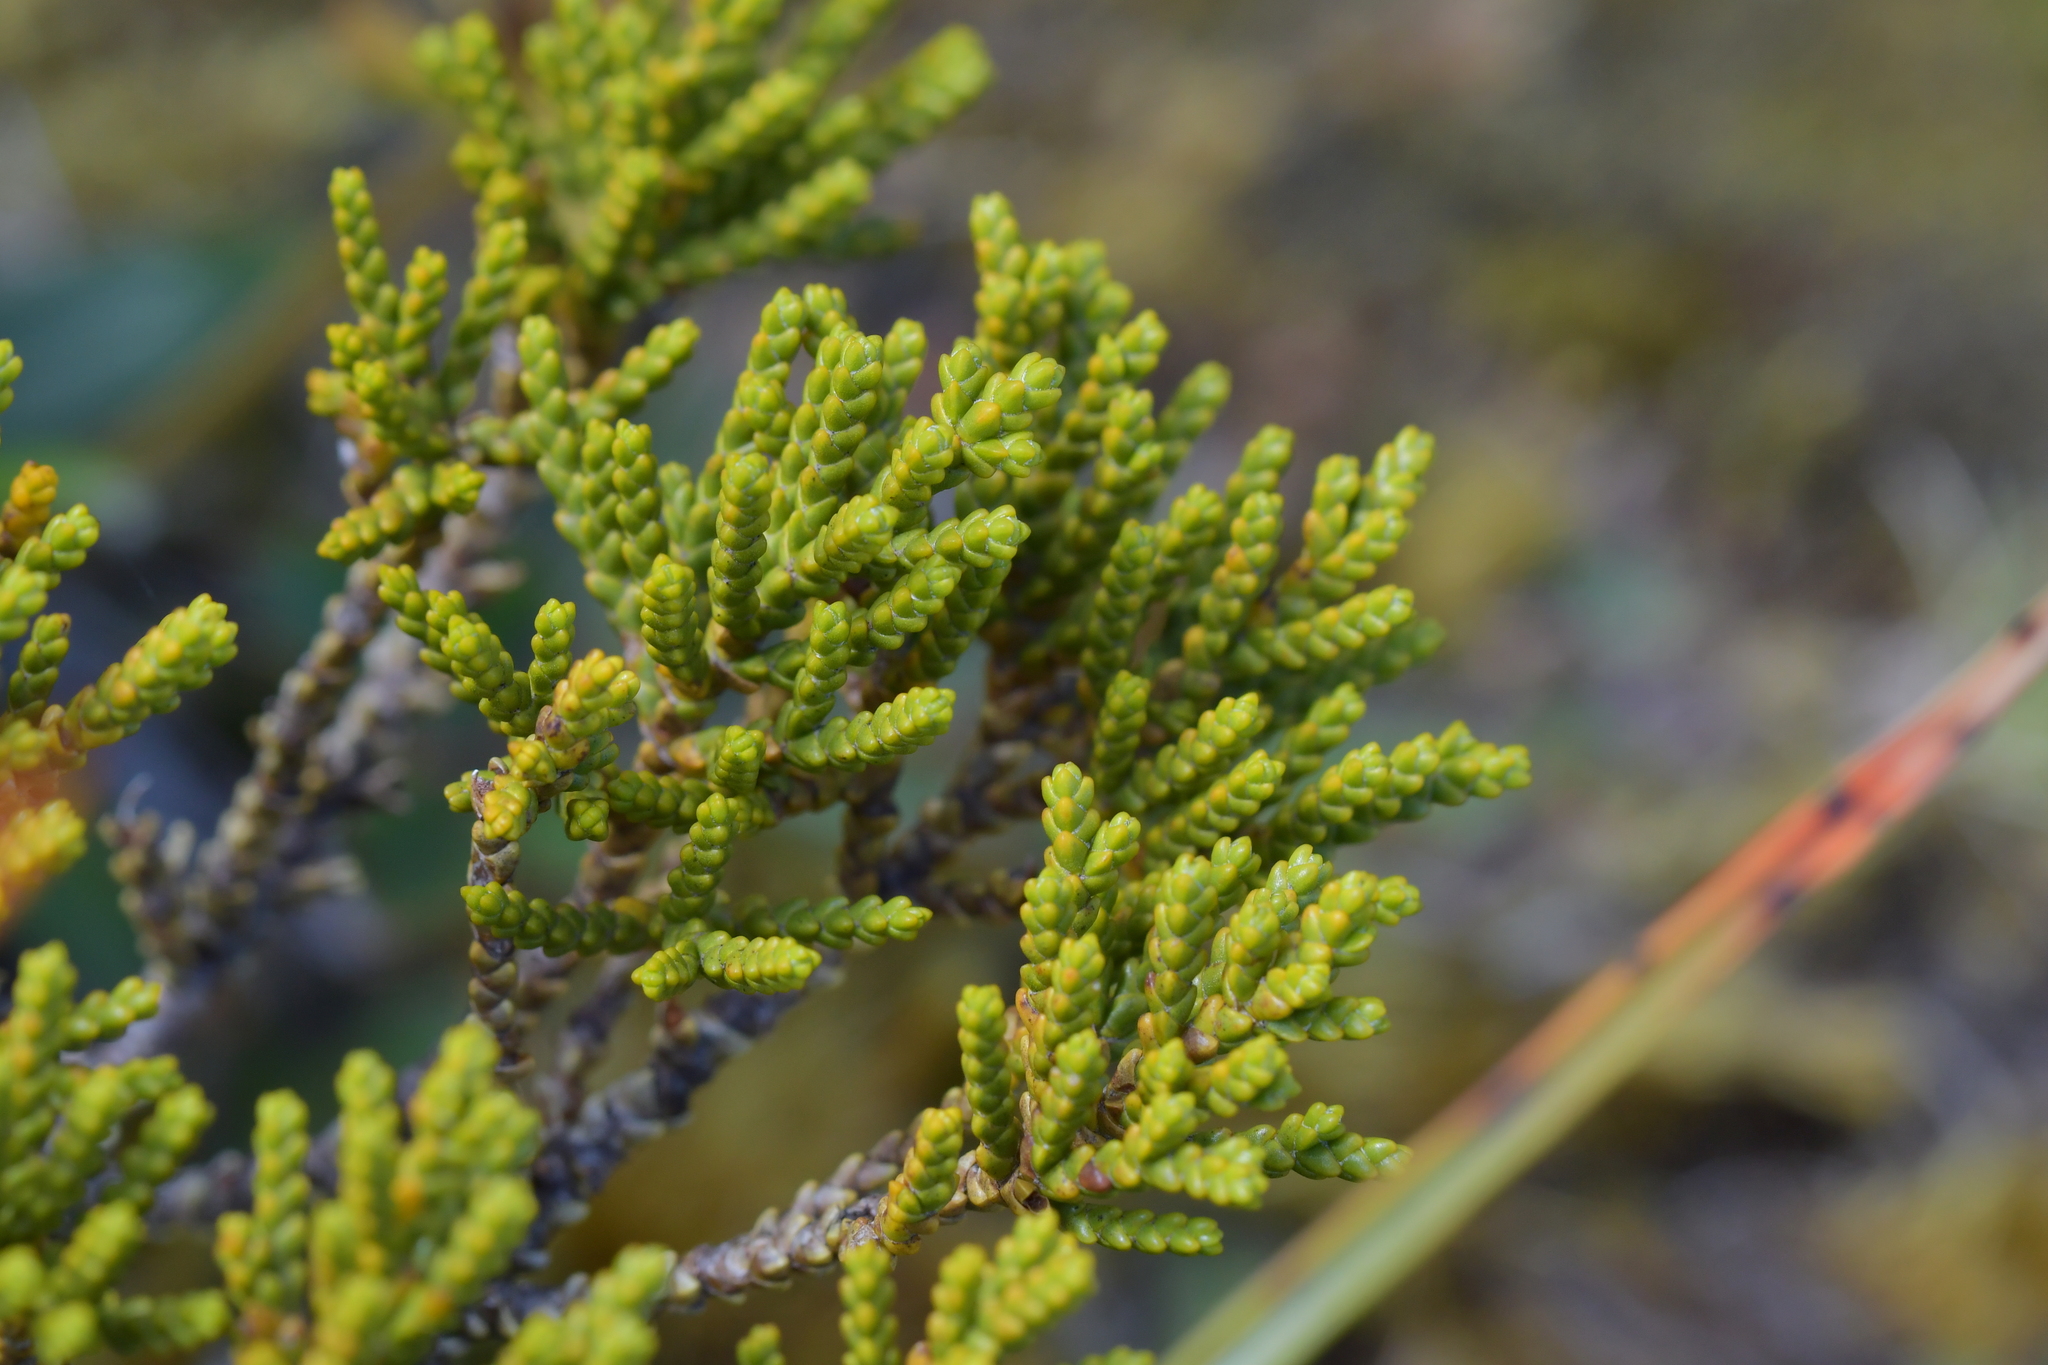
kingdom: Plantae
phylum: Tracheophyta
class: Magnoliopsida
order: Lamiales
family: Plantaginaceae
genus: Veronica
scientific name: Veronica tetragona
